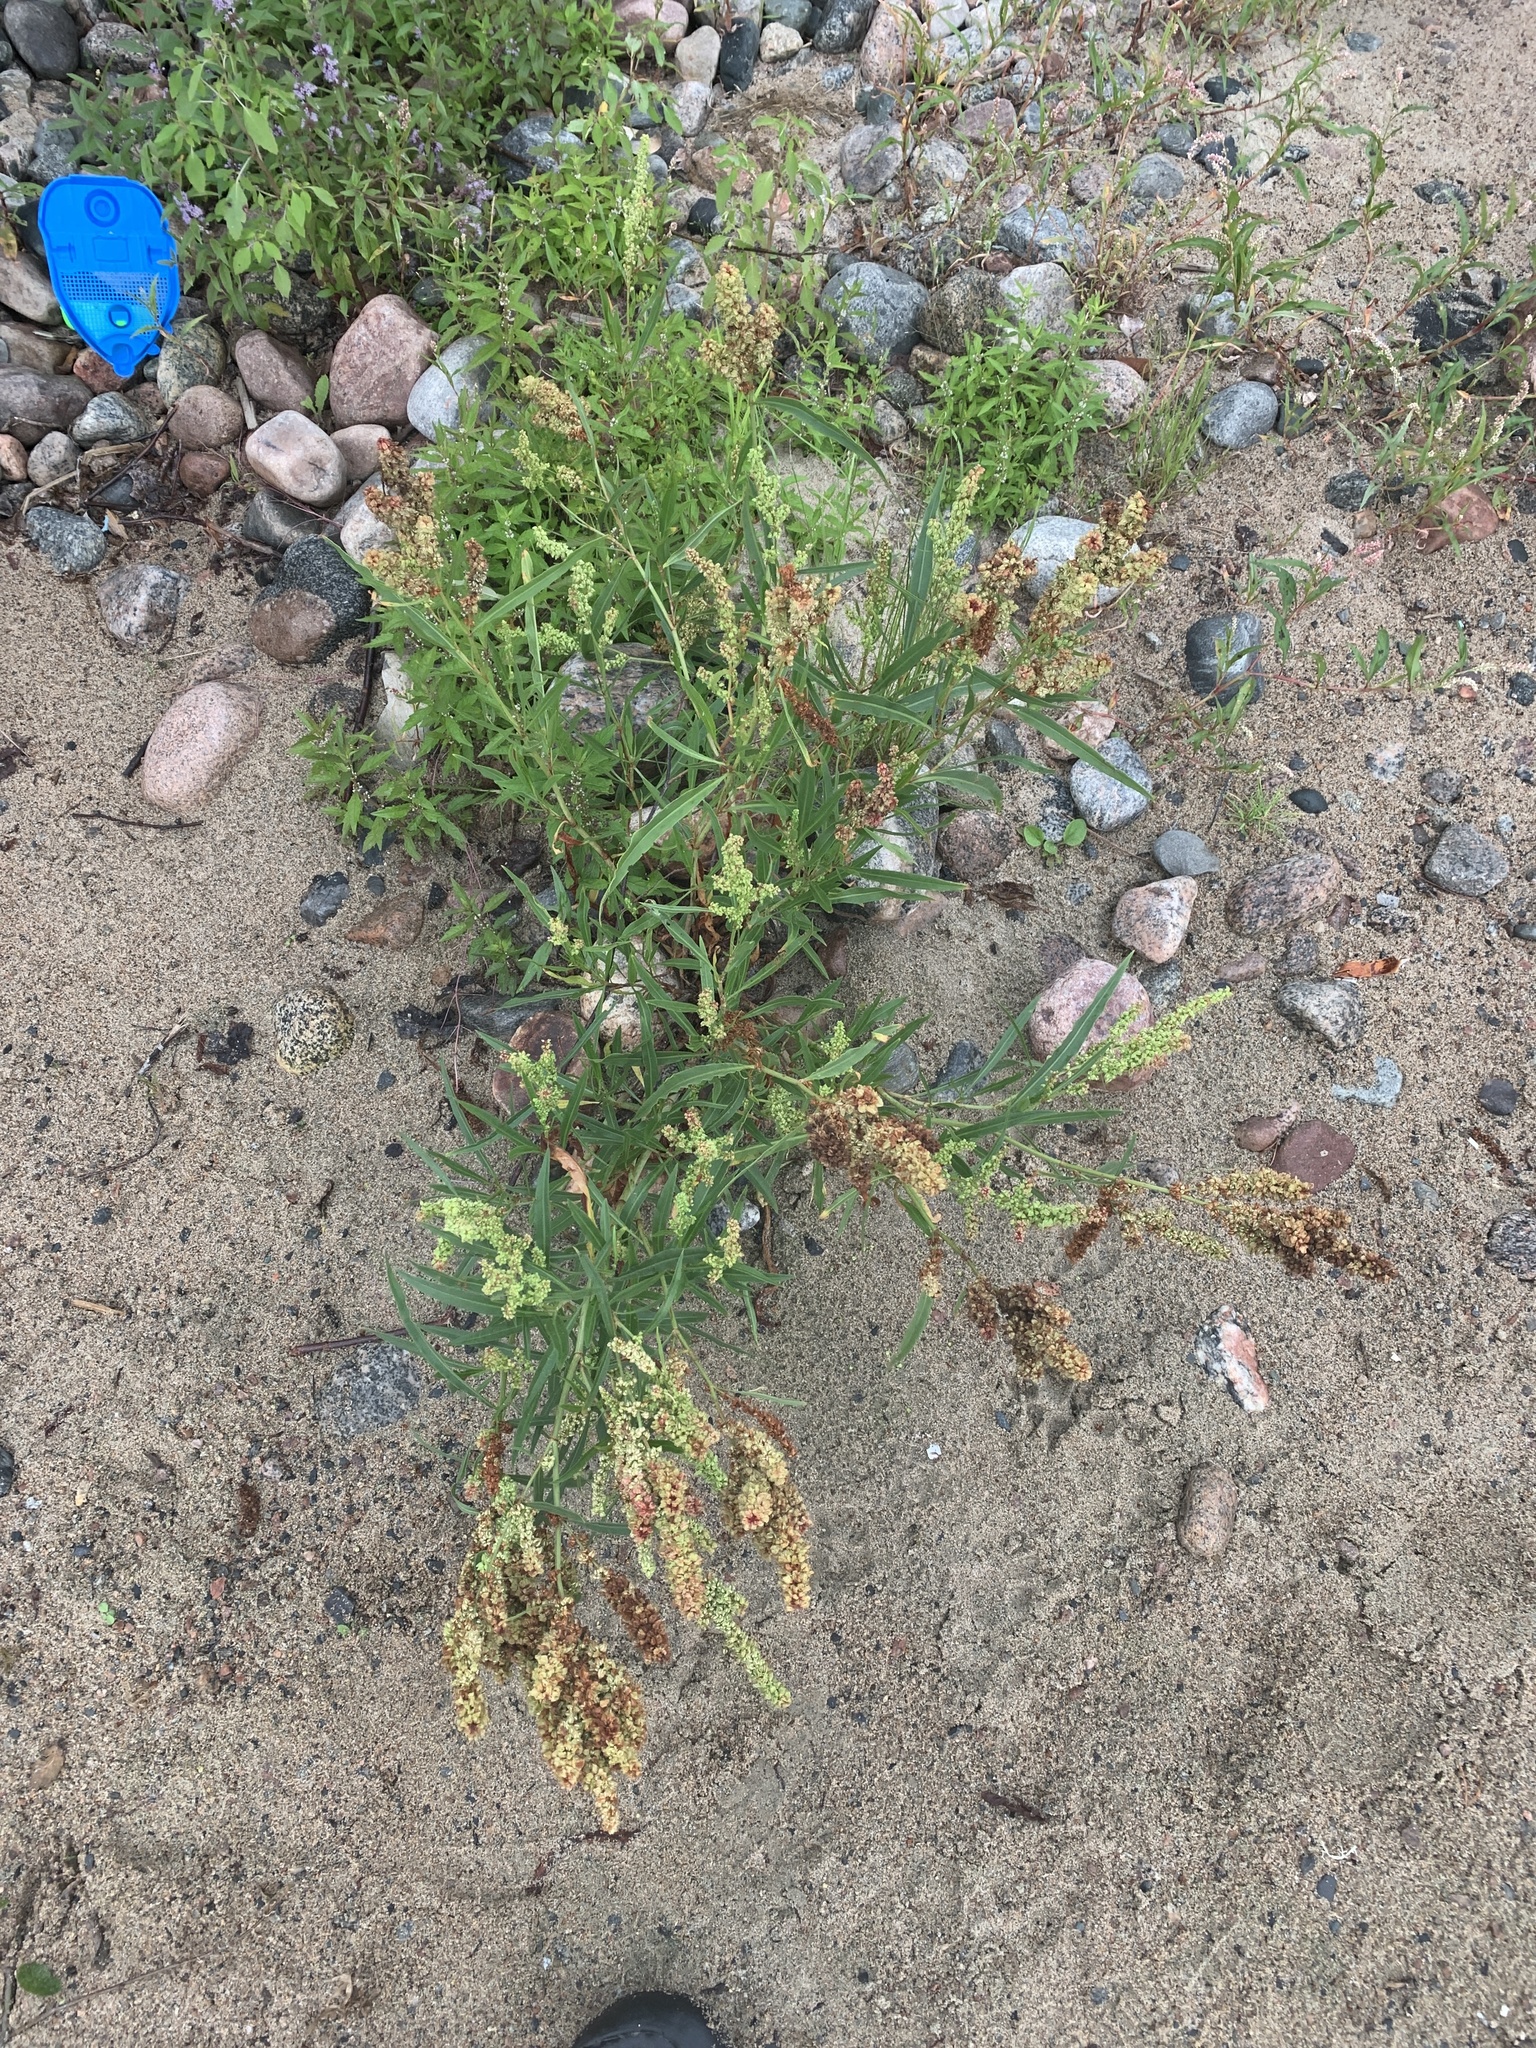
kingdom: Plantae
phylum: Tracheophyta
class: Magnoliopsida
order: Caryophyllales
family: Polygonaceae
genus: Rumex
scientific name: Rumex triangulivalvis
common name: Triangular-valve dock
